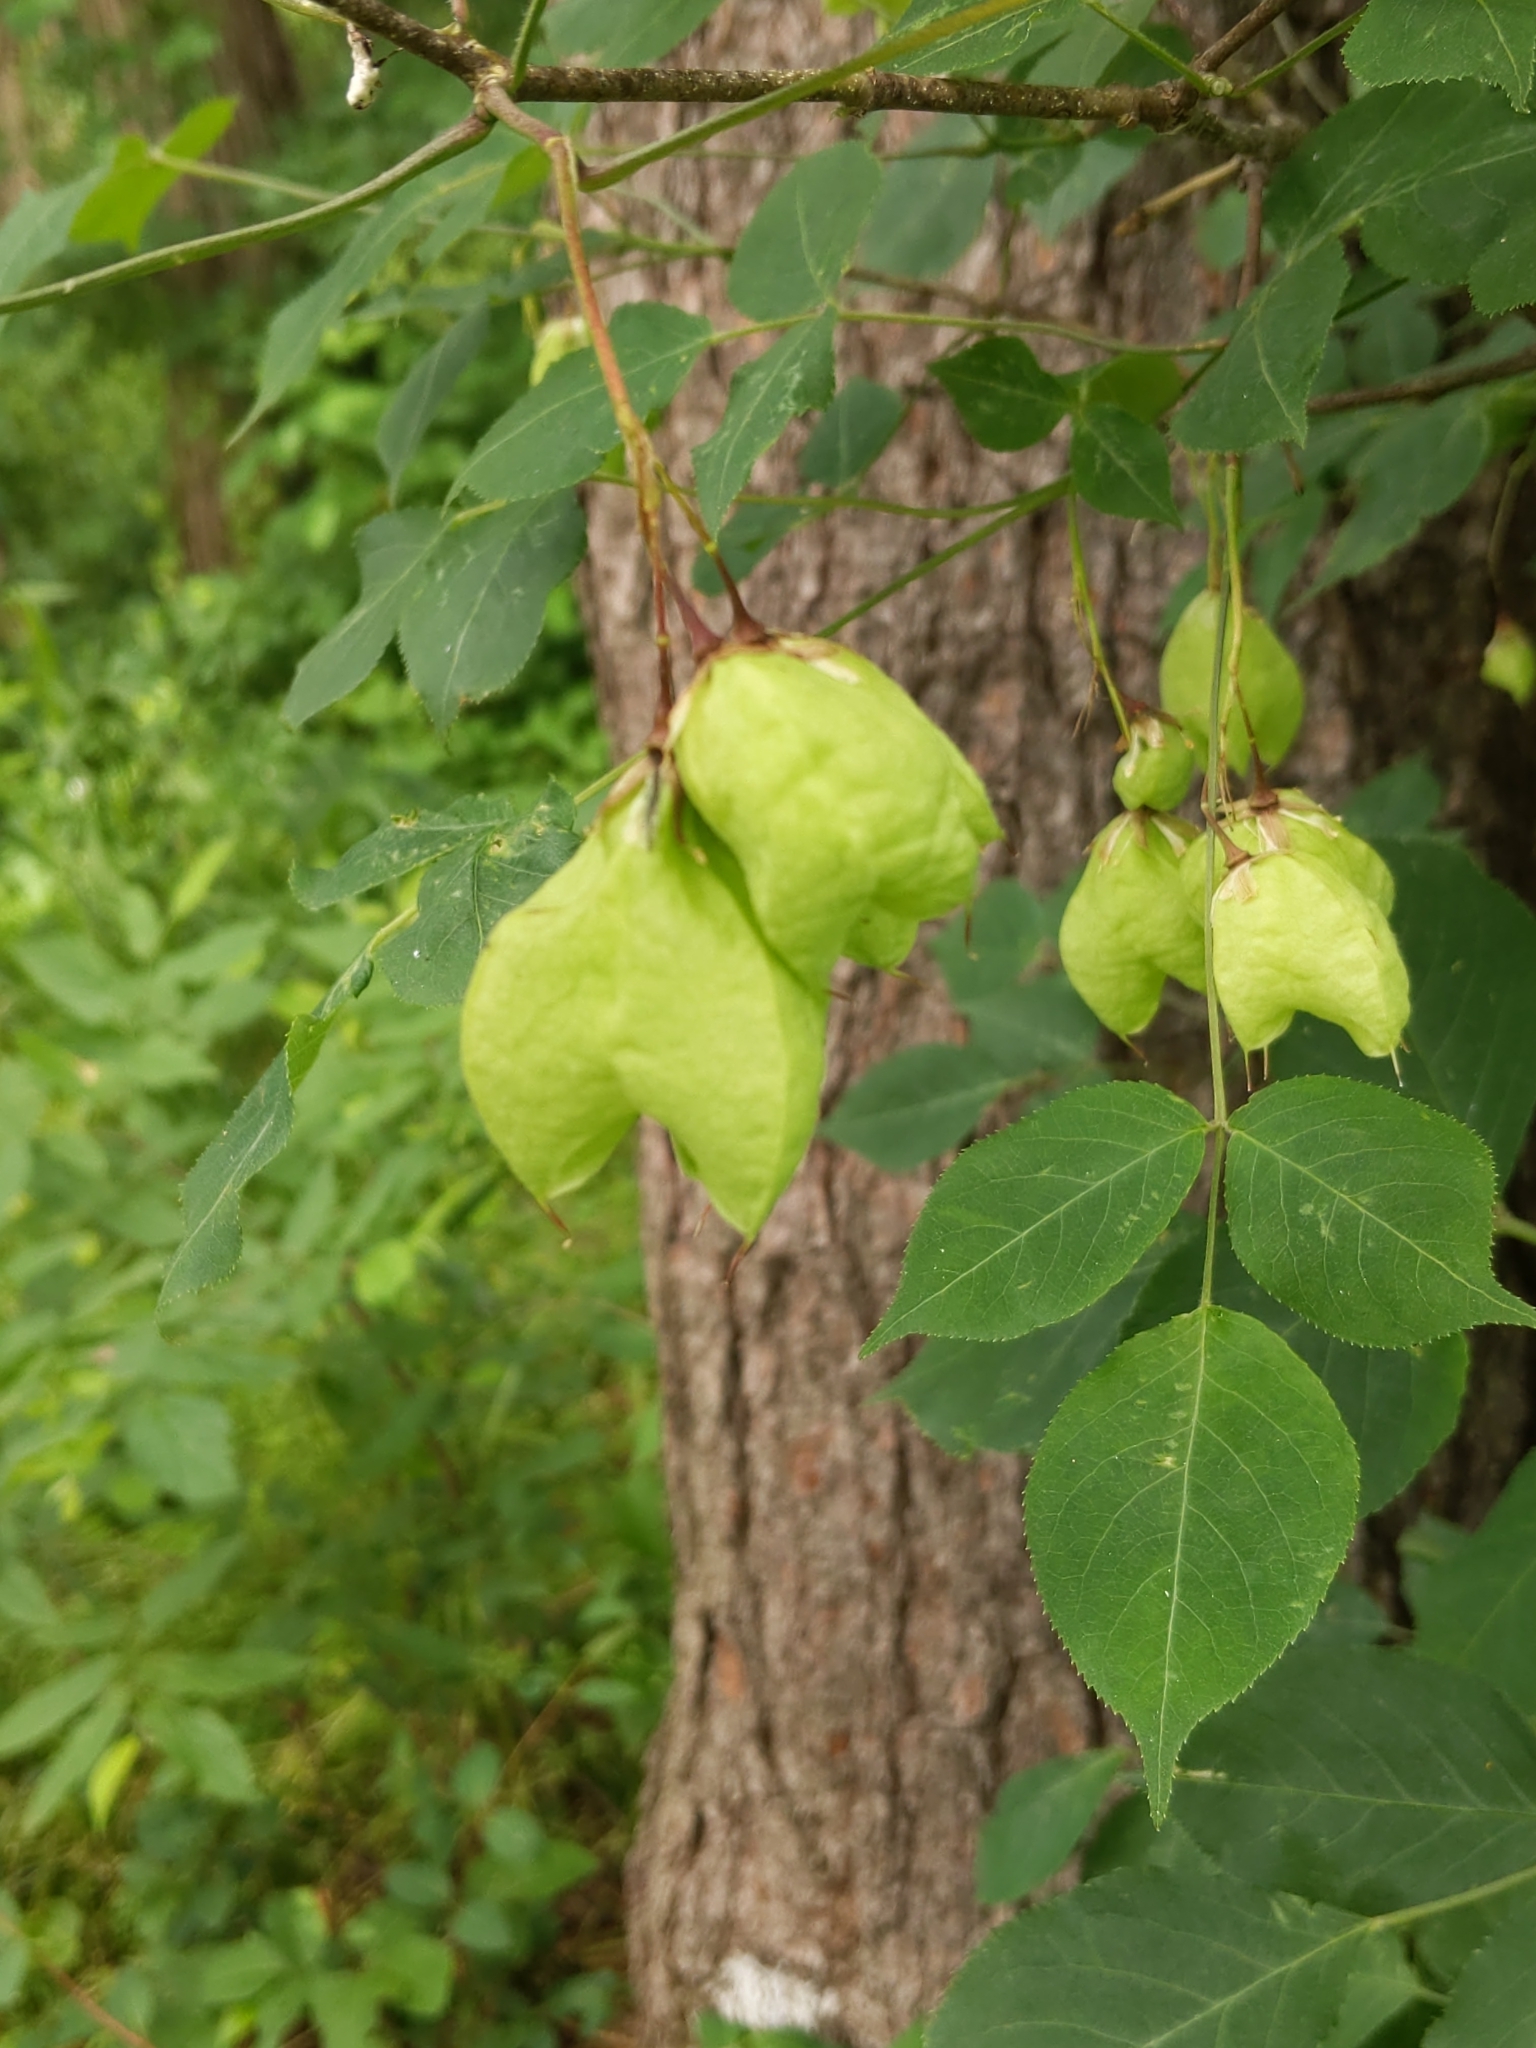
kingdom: Plantae
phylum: Tracheophyta
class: Magnoliopsida
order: Crossosomatales
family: Staphyleaceae
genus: Staphylea
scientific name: Staphylea trifolia
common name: American bladdernut
